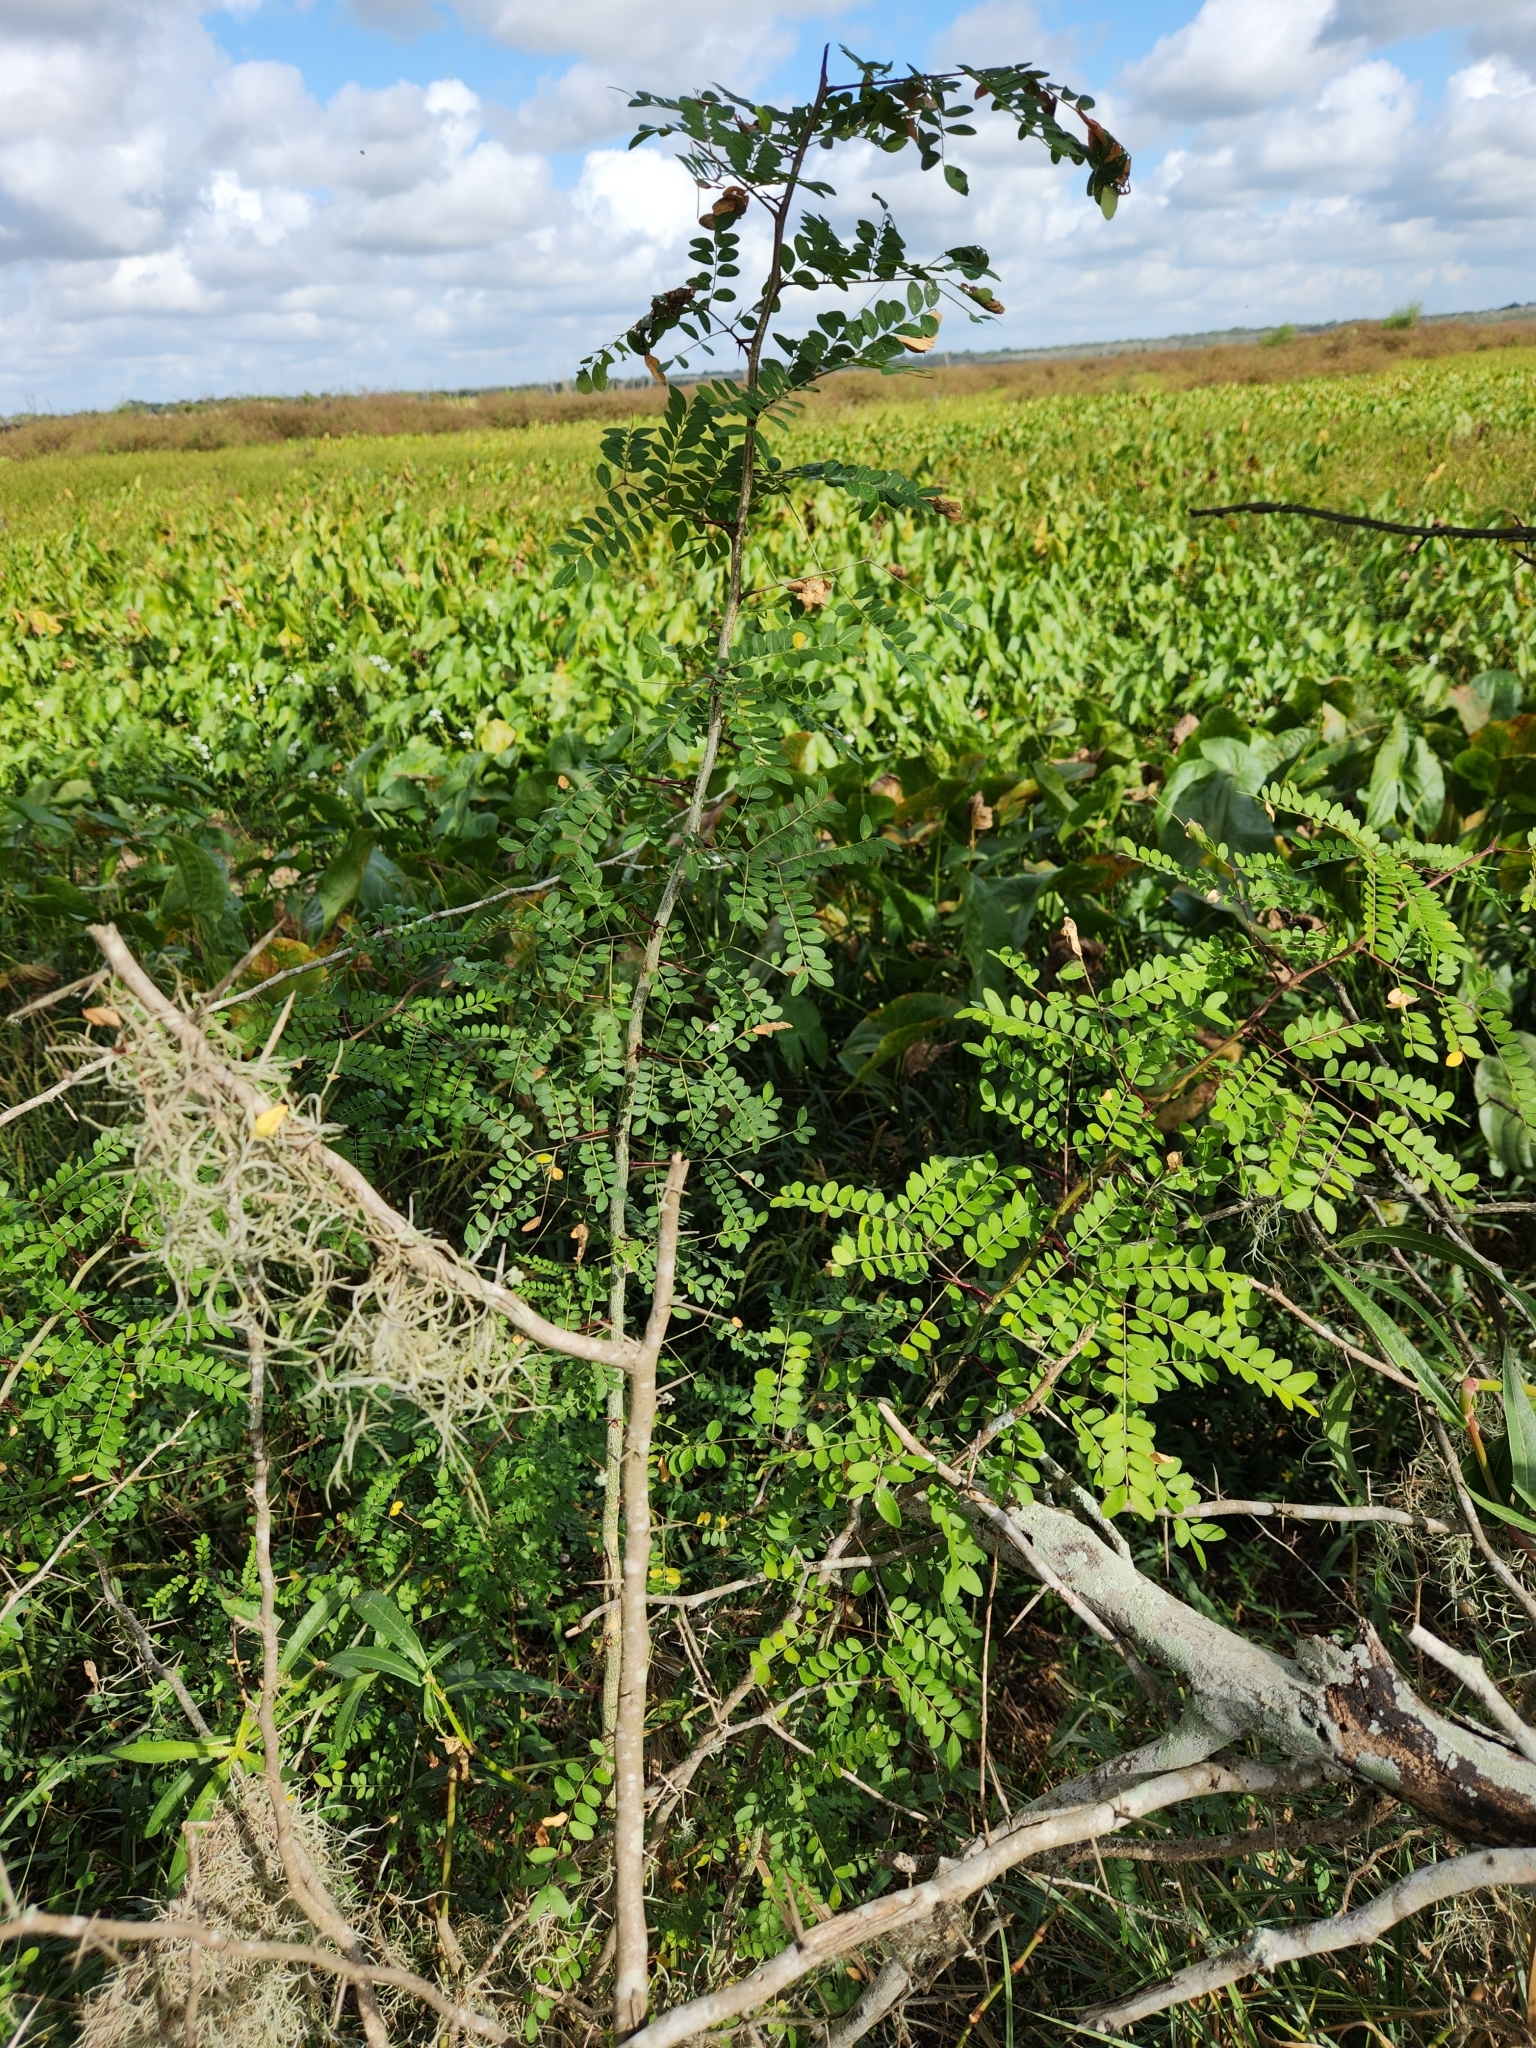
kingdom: Plantae
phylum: Tracheophyta
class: Magnoliopsida
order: Fabales
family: Fabaceae
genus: Gleditsia
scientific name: Gleditsia triacanthos
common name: Common honeylocust
